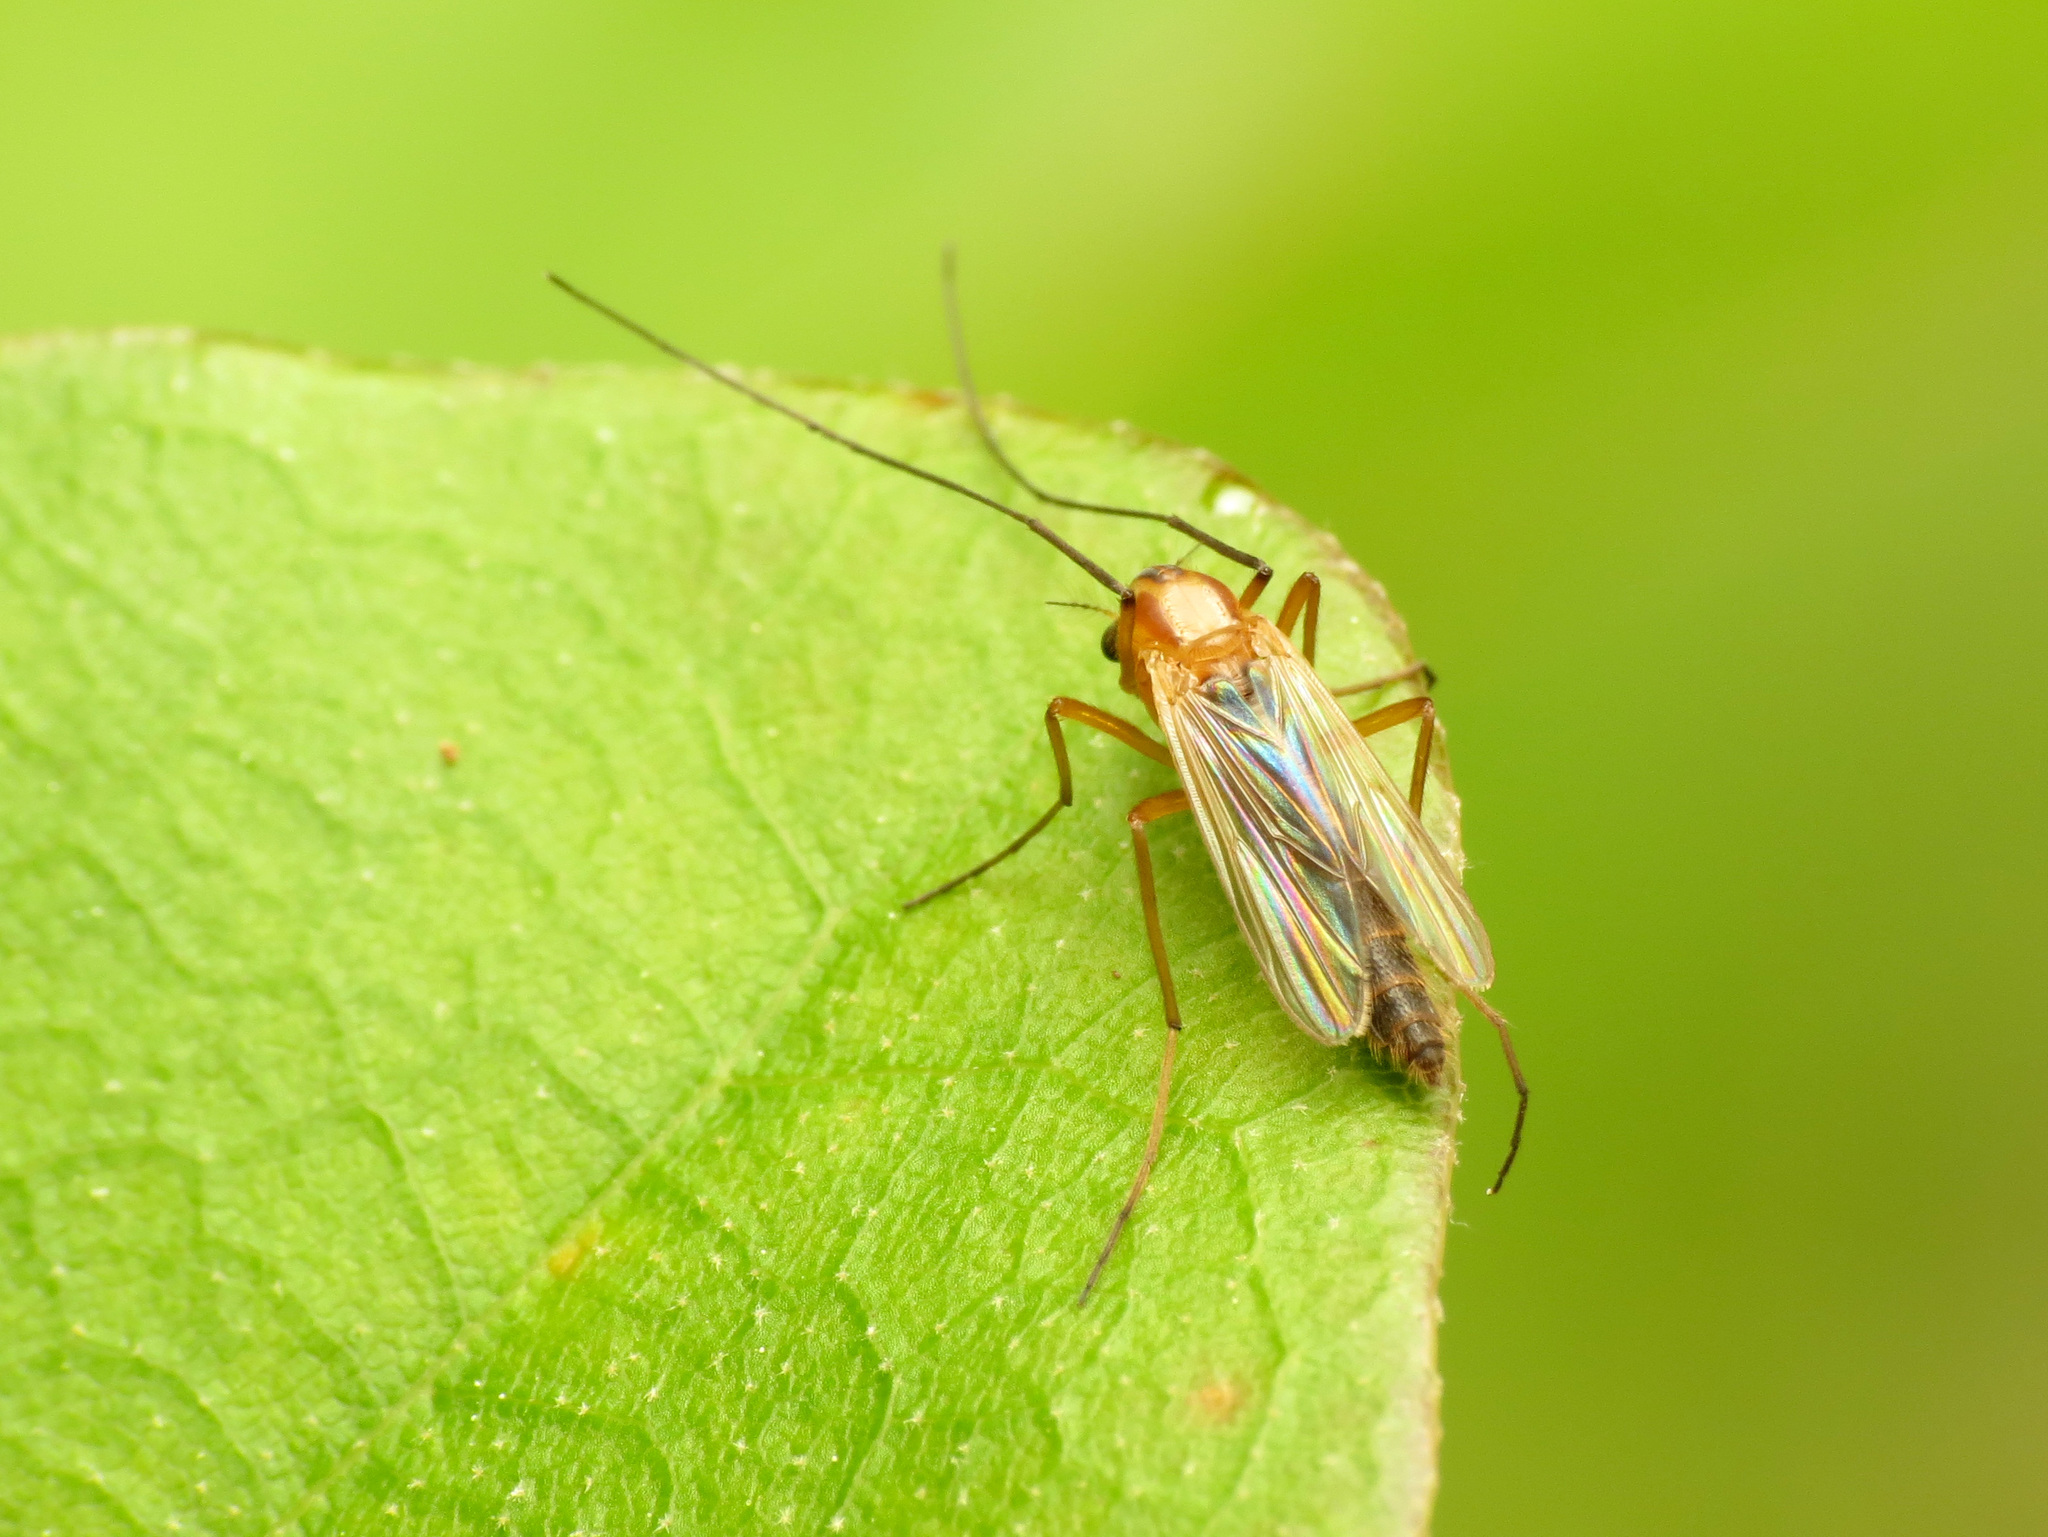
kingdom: Animalia
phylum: Arthropoda
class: Insecta
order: Diptera
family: Chironomidae
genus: Chironomus
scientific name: Chironomus ochreatus
